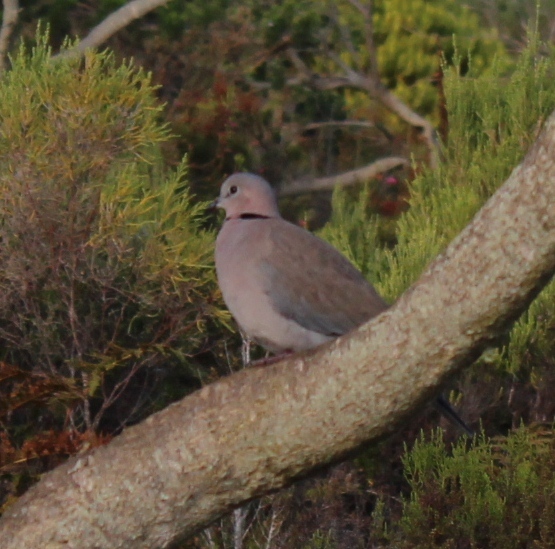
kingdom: Animalia
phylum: Chordata
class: Aves
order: Columbiformes
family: Columbidae
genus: Streptopelia
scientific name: Streptopelia capicola
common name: Ring-necked dove
